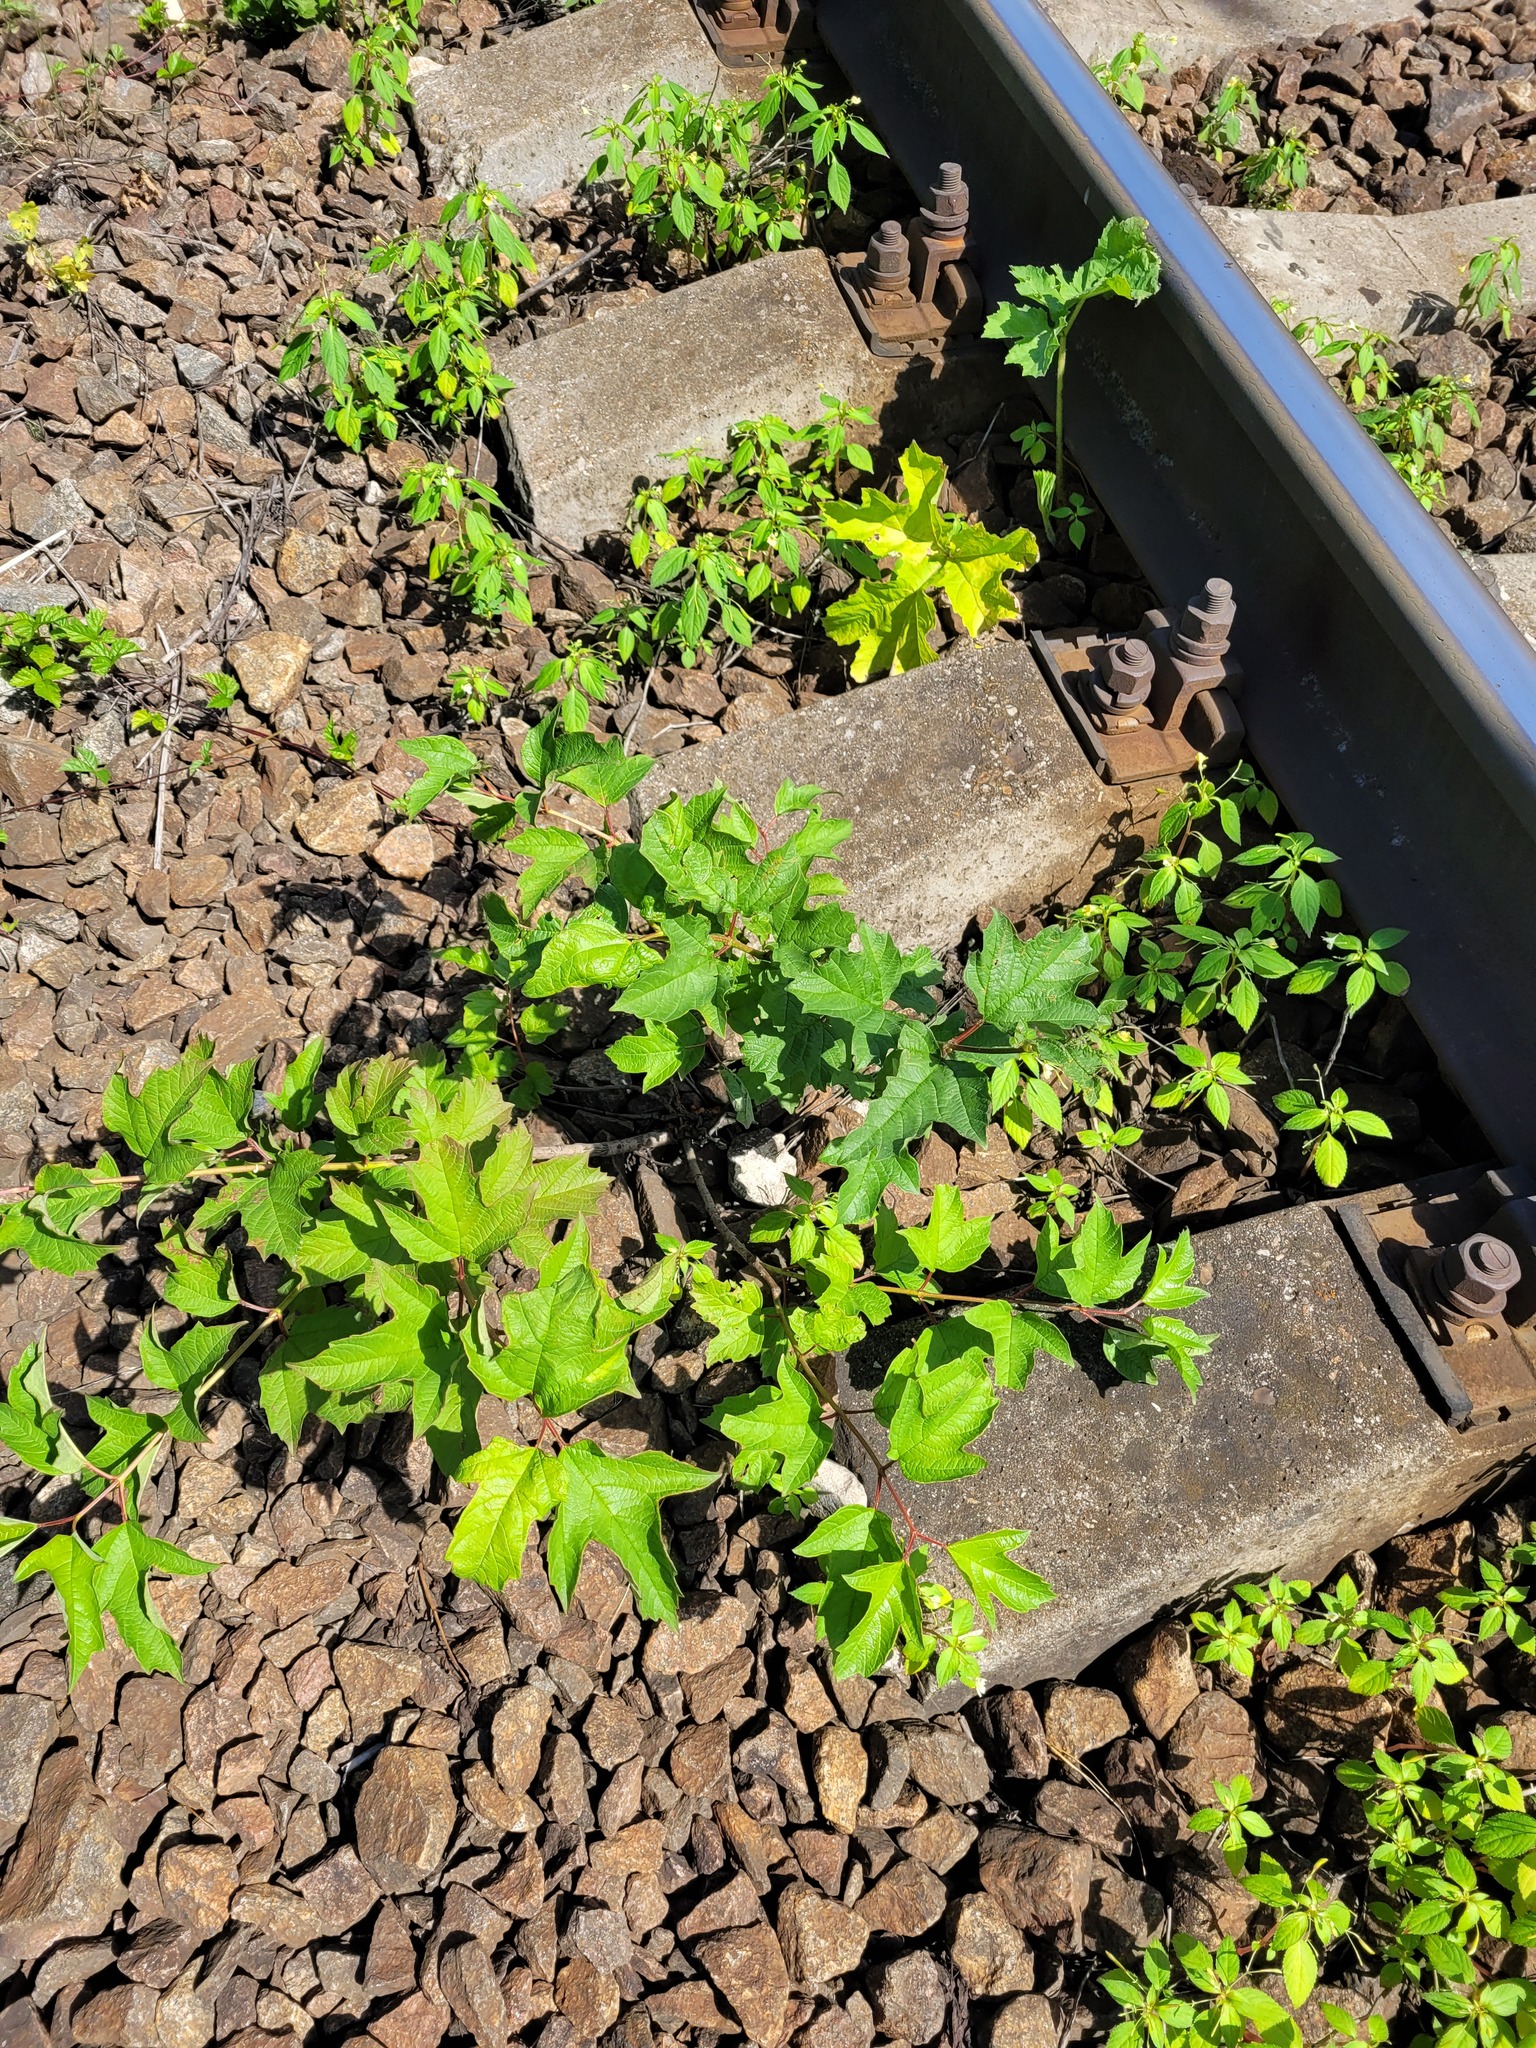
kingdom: Plantae
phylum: Tracheophyta
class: Magnoliopsida
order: Dipsacales
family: Viburnaceae
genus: Viburnum
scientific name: Viburnum opulus
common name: Guelder-rose
